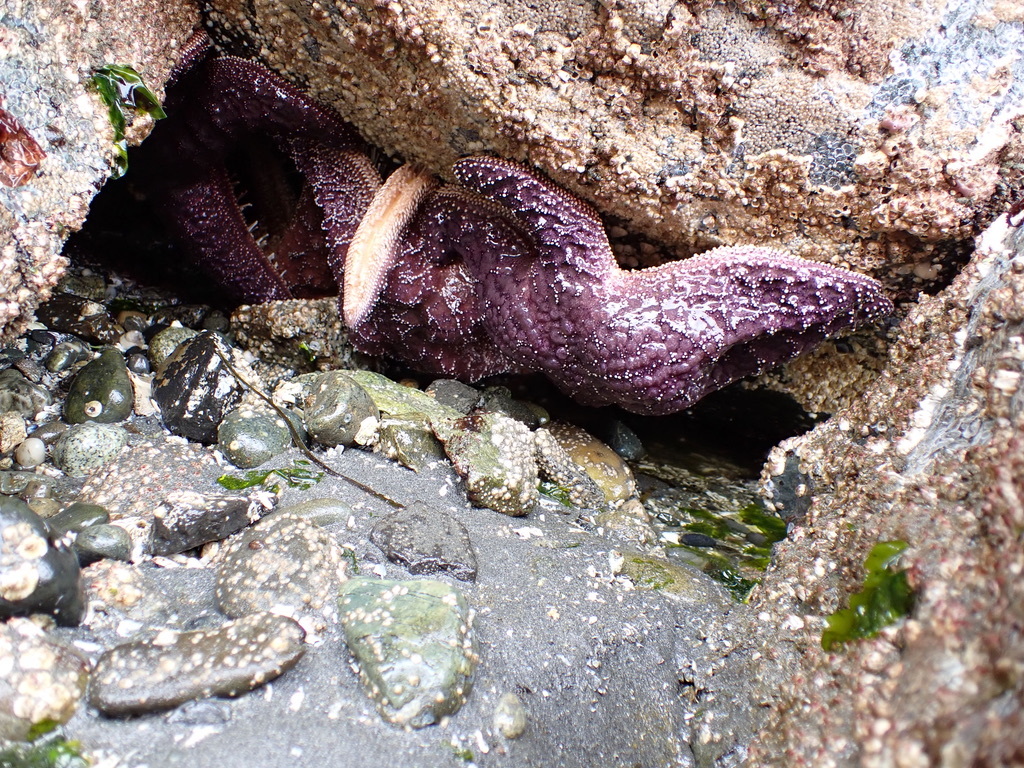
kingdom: Animalia
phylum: Echinodermata
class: Asteroidea
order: Forcipulatida
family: Asteriidae
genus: Pisaster
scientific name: Pisaster ochraceus
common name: Ochre stars
